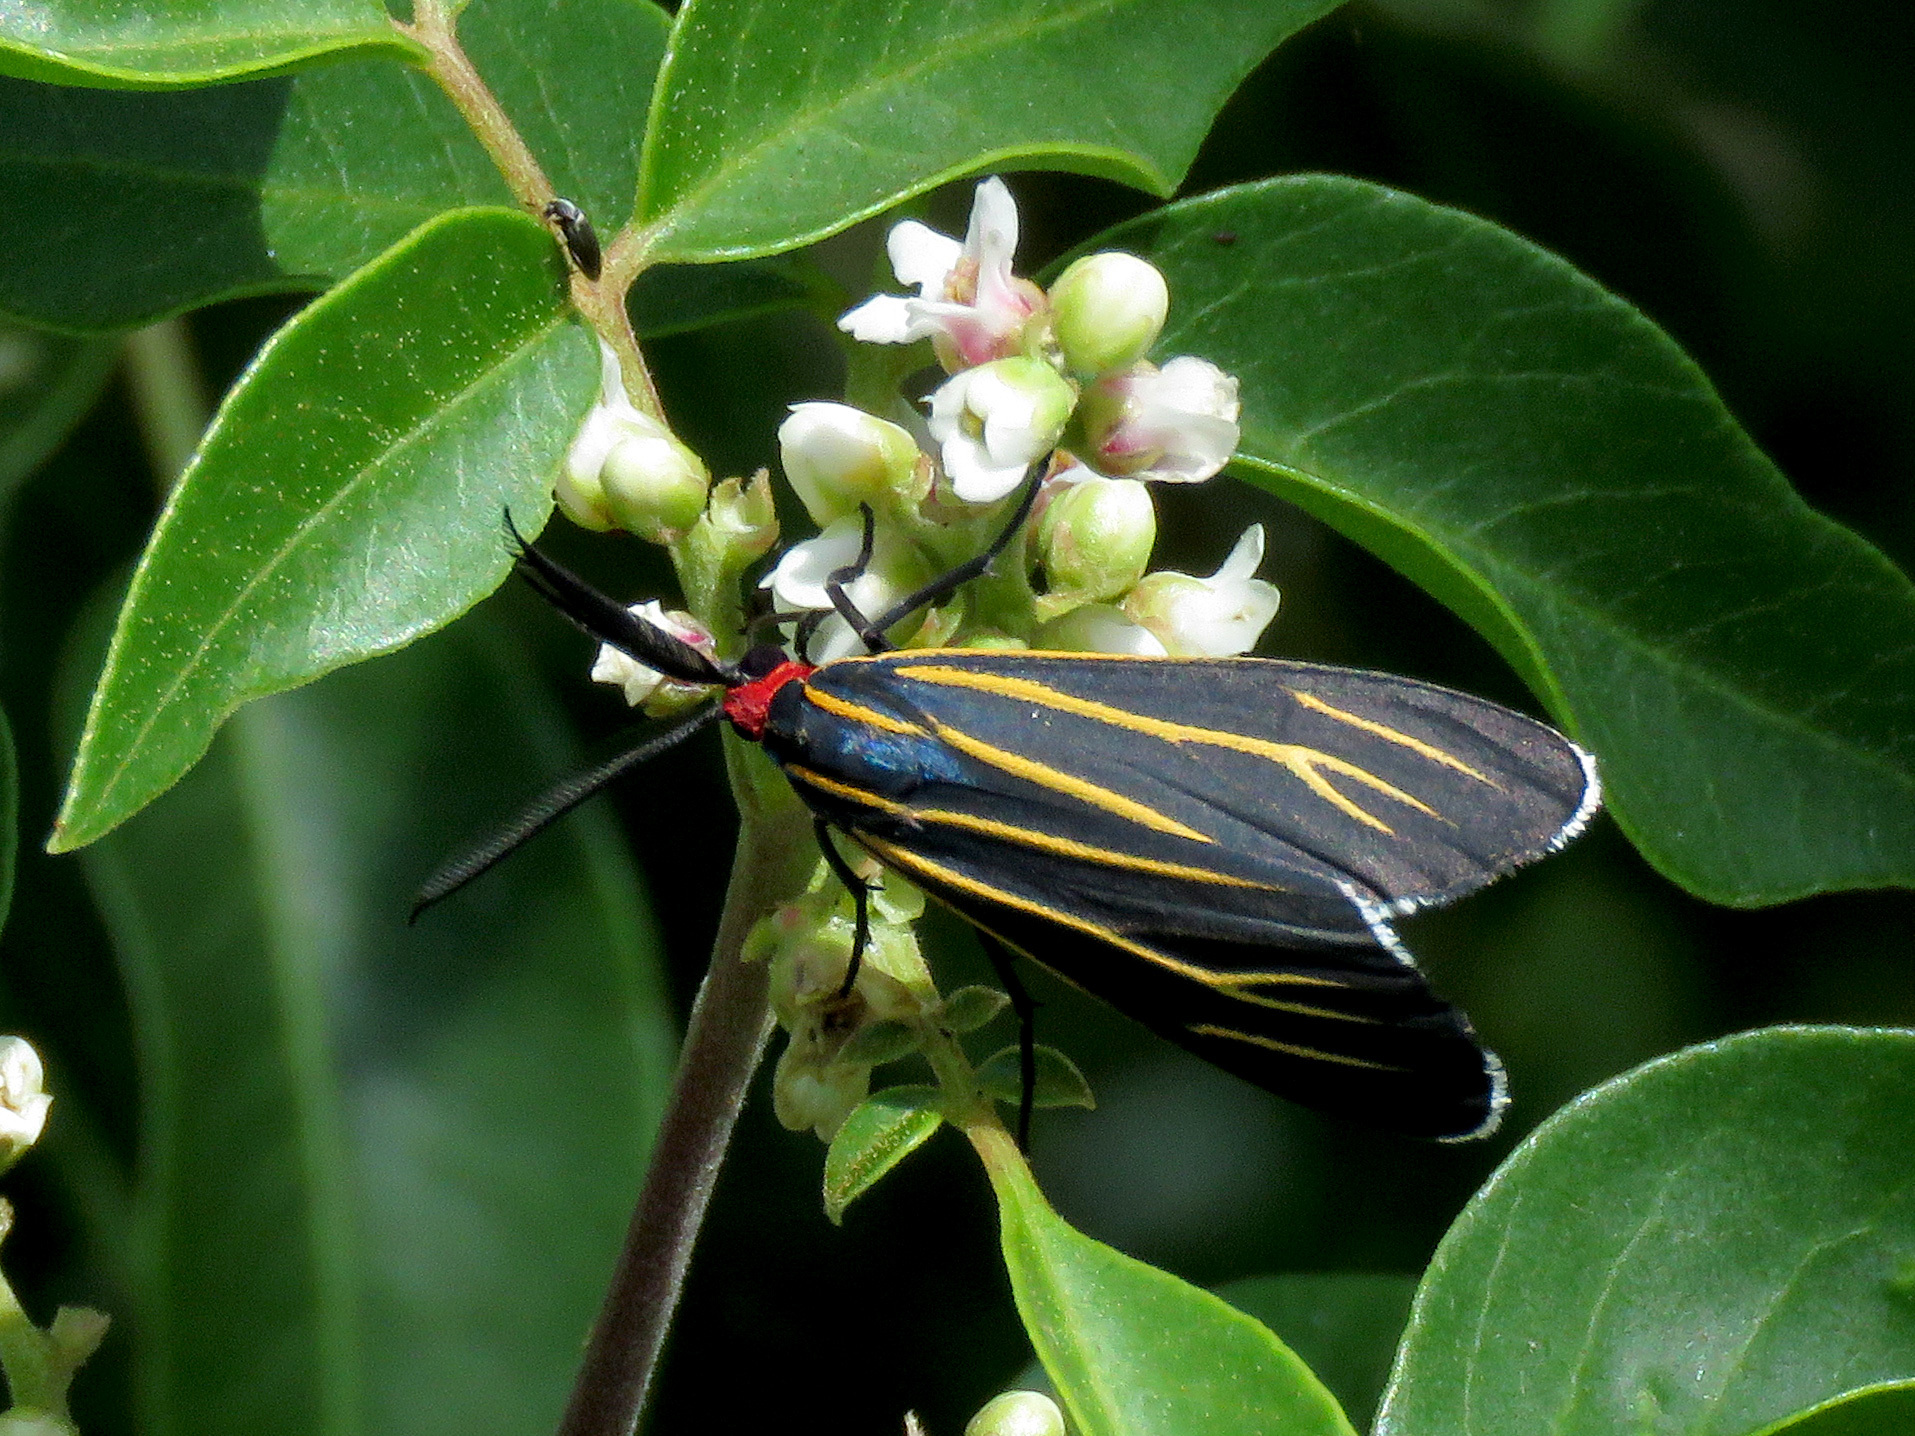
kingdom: Animalia
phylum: Arthropoda
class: Insecta
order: Lepidoptera
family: Erebidae
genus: Ctenucha
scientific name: Ctenucha venosa
